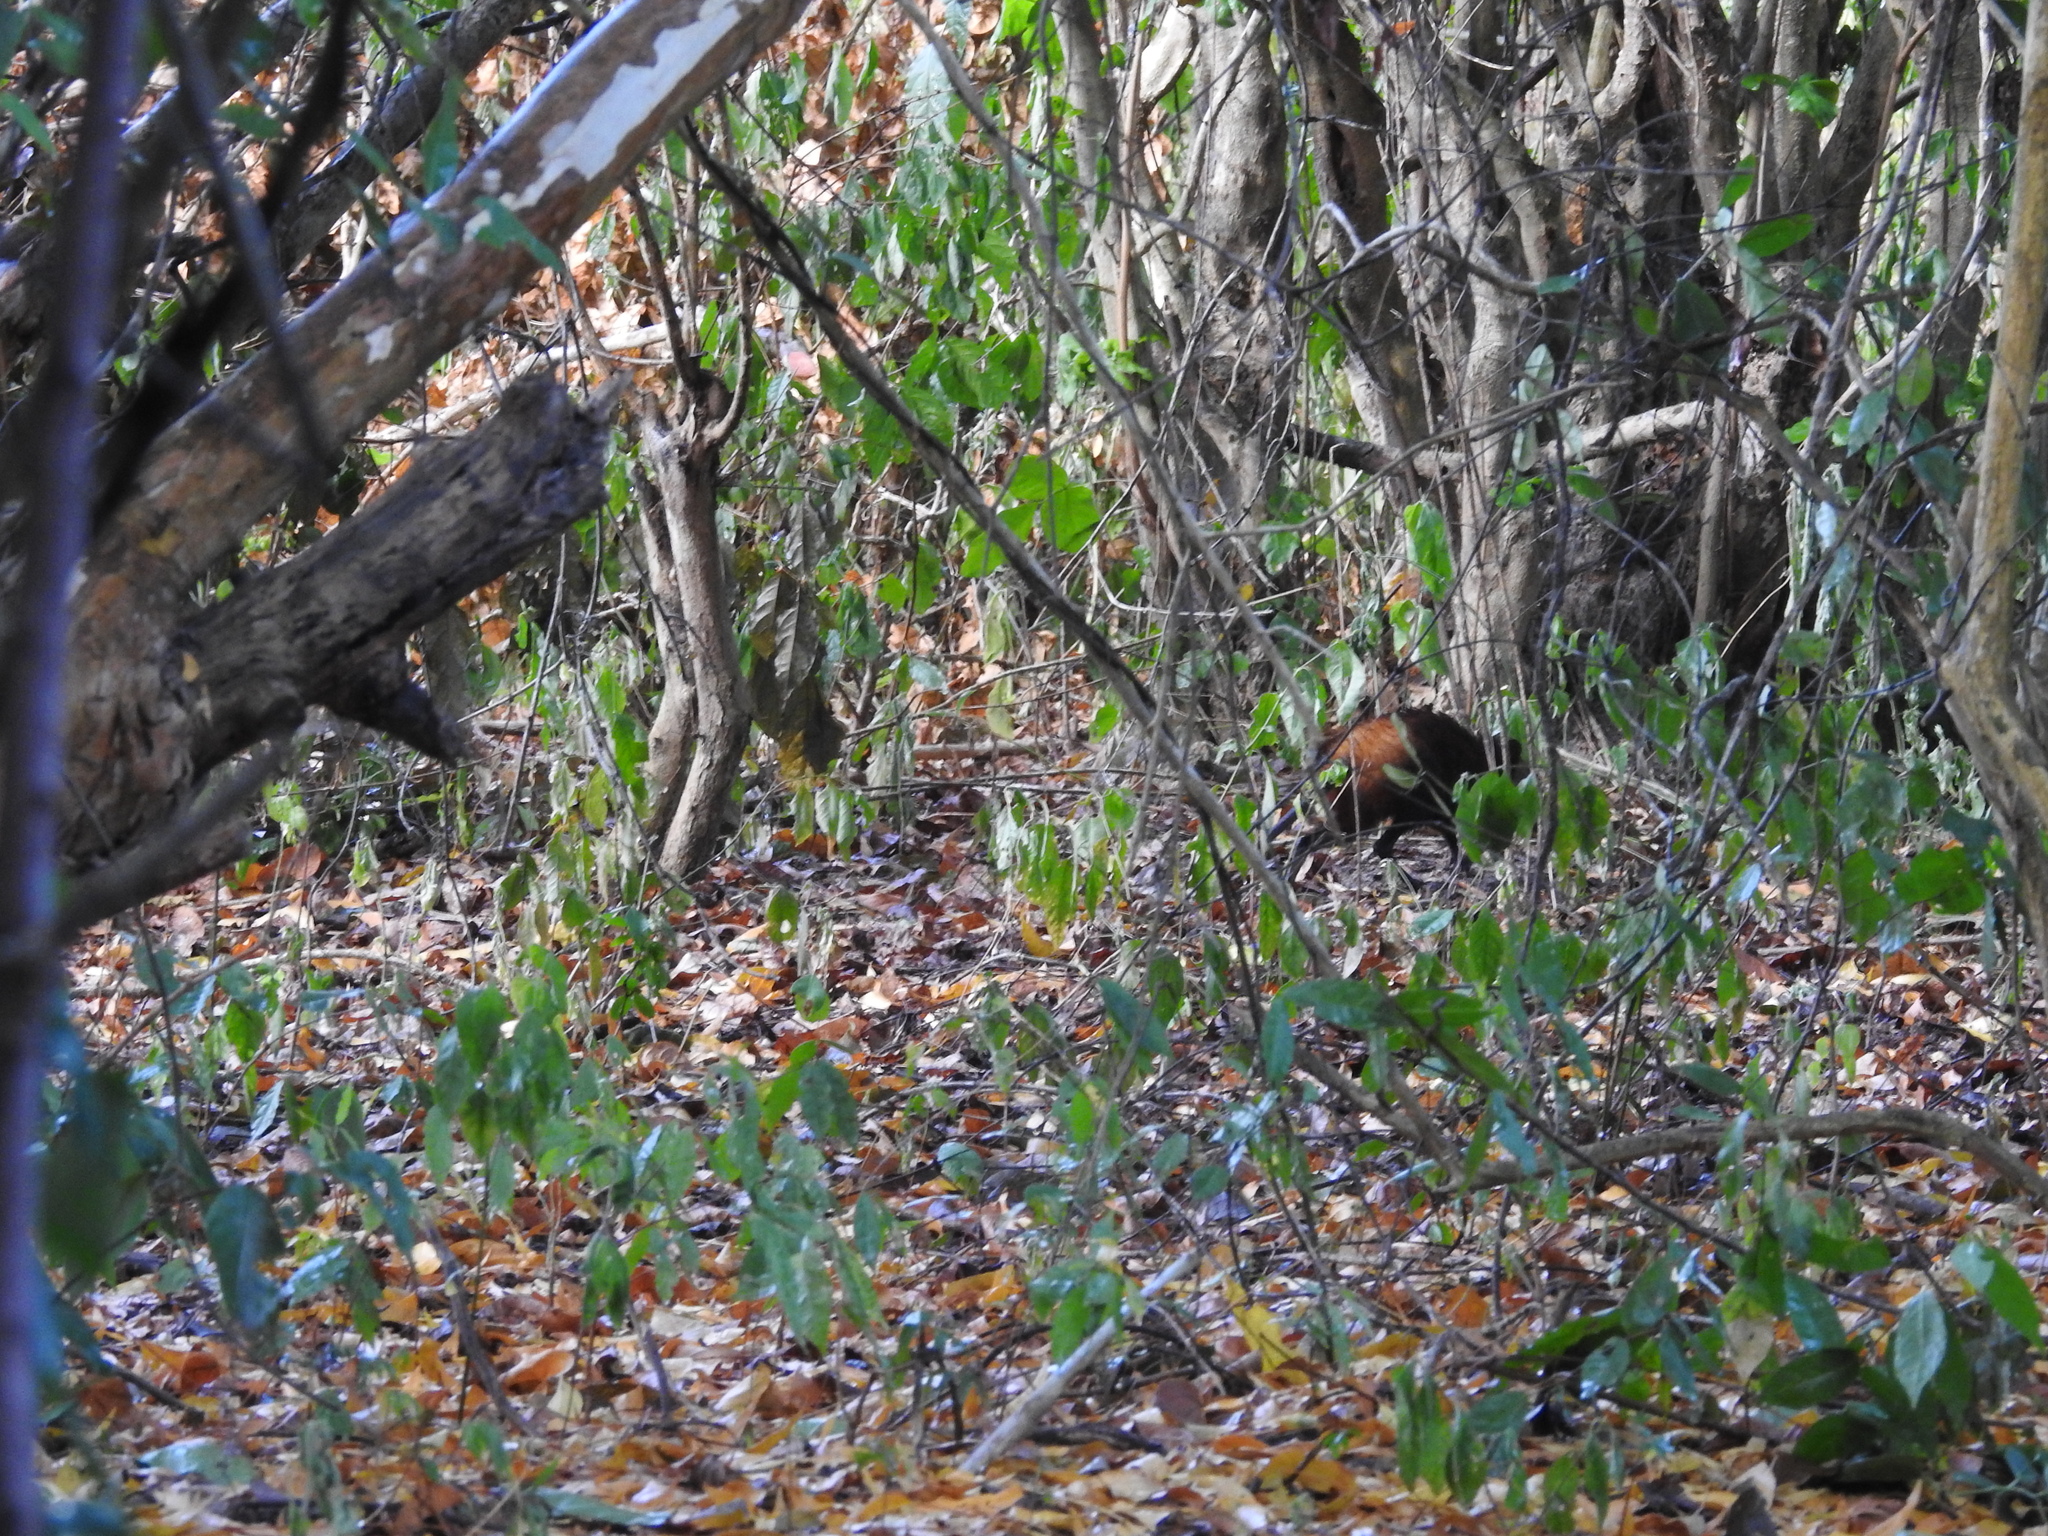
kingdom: Animalia
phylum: Chordata
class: Mammalia
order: Macroscelidea
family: Macroscelididae
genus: Rhynchocyon
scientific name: Rhynchocyon chrysopygus
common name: Golden-rumped elephant shrew
